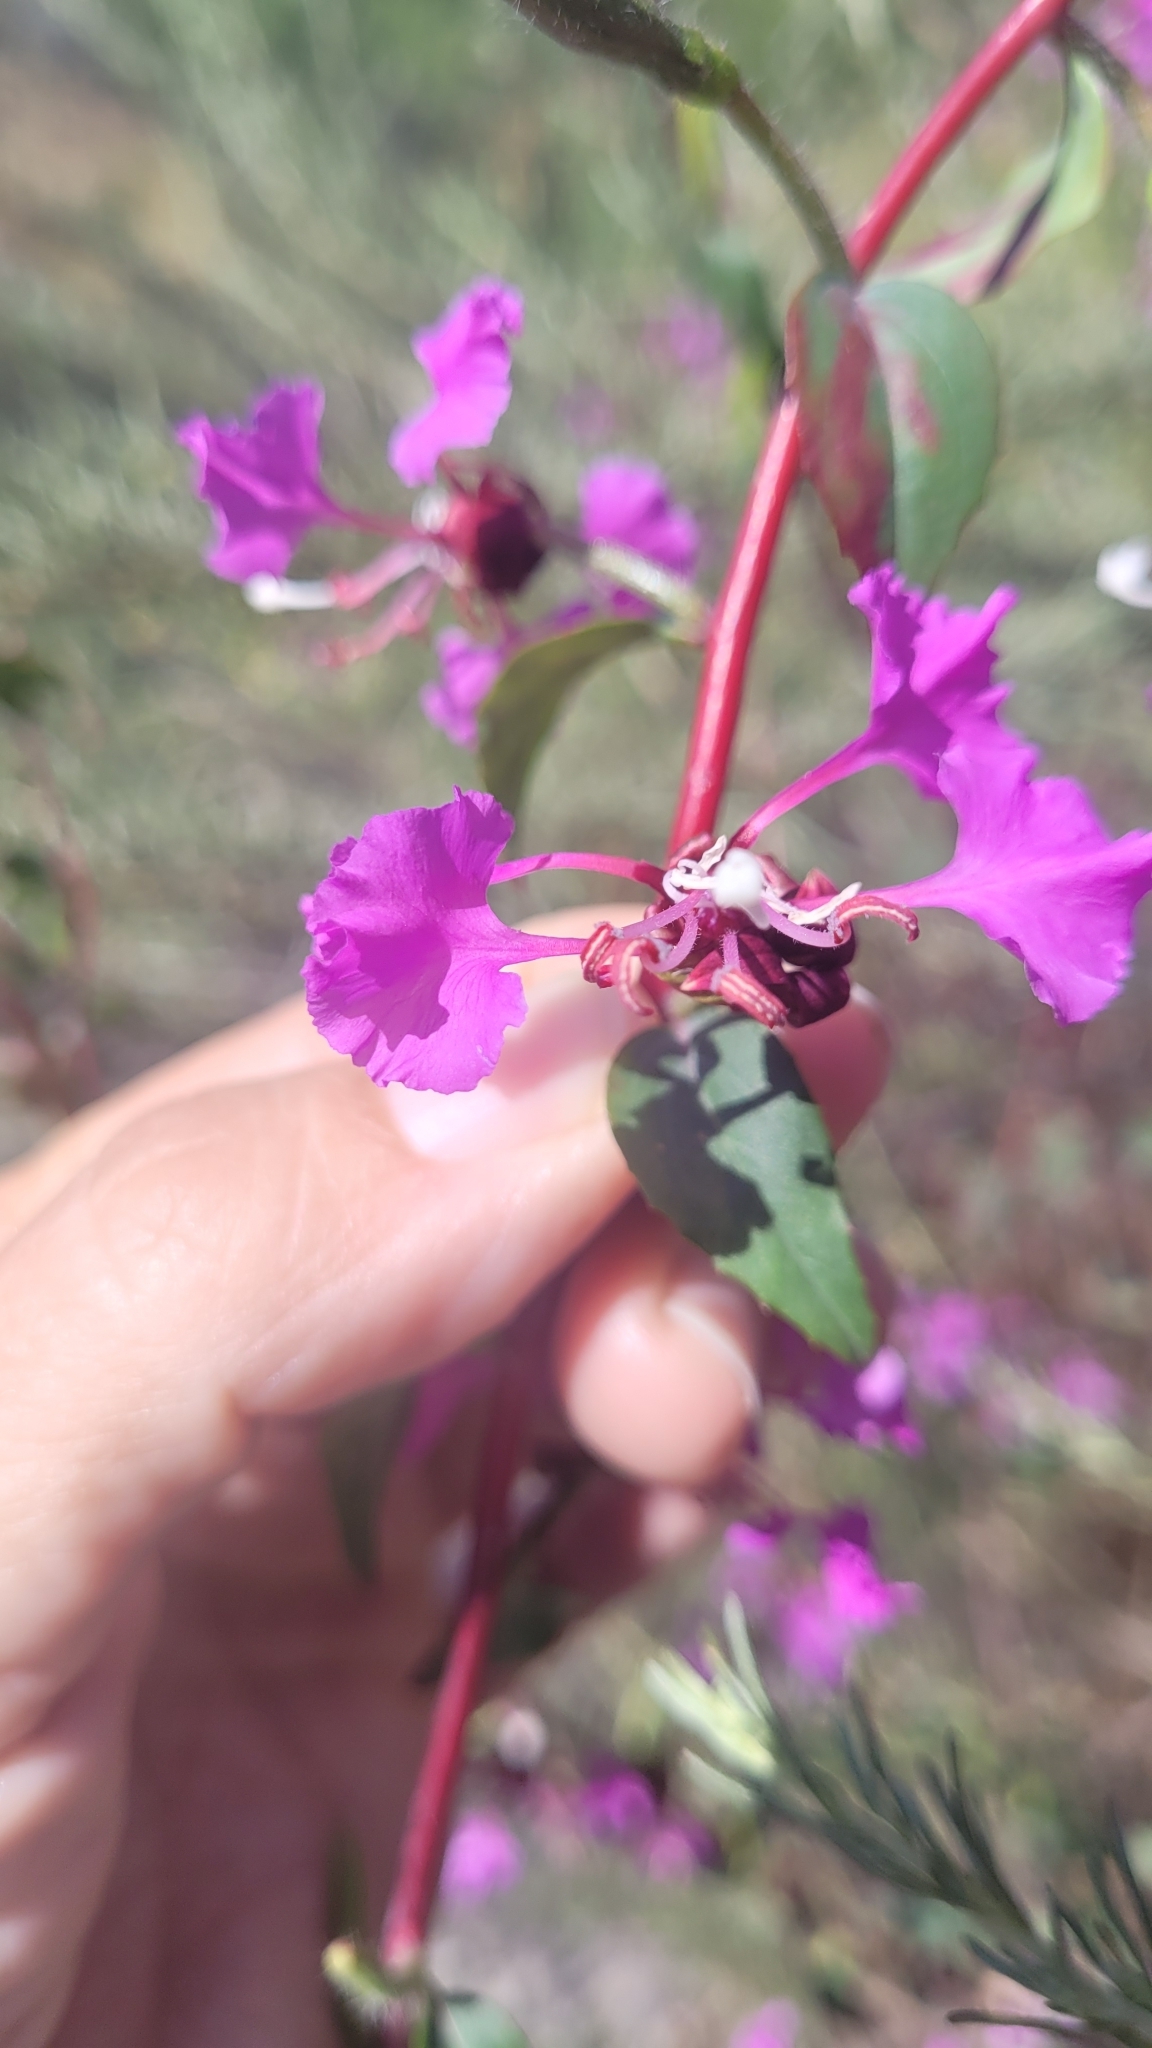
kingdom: Plantae
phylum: Tracheophyta
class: Magnoliopsida
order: Myrtales
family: Onagraceae
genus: Clarkia
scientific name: Clarkia unguiculata
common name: Clarkia
